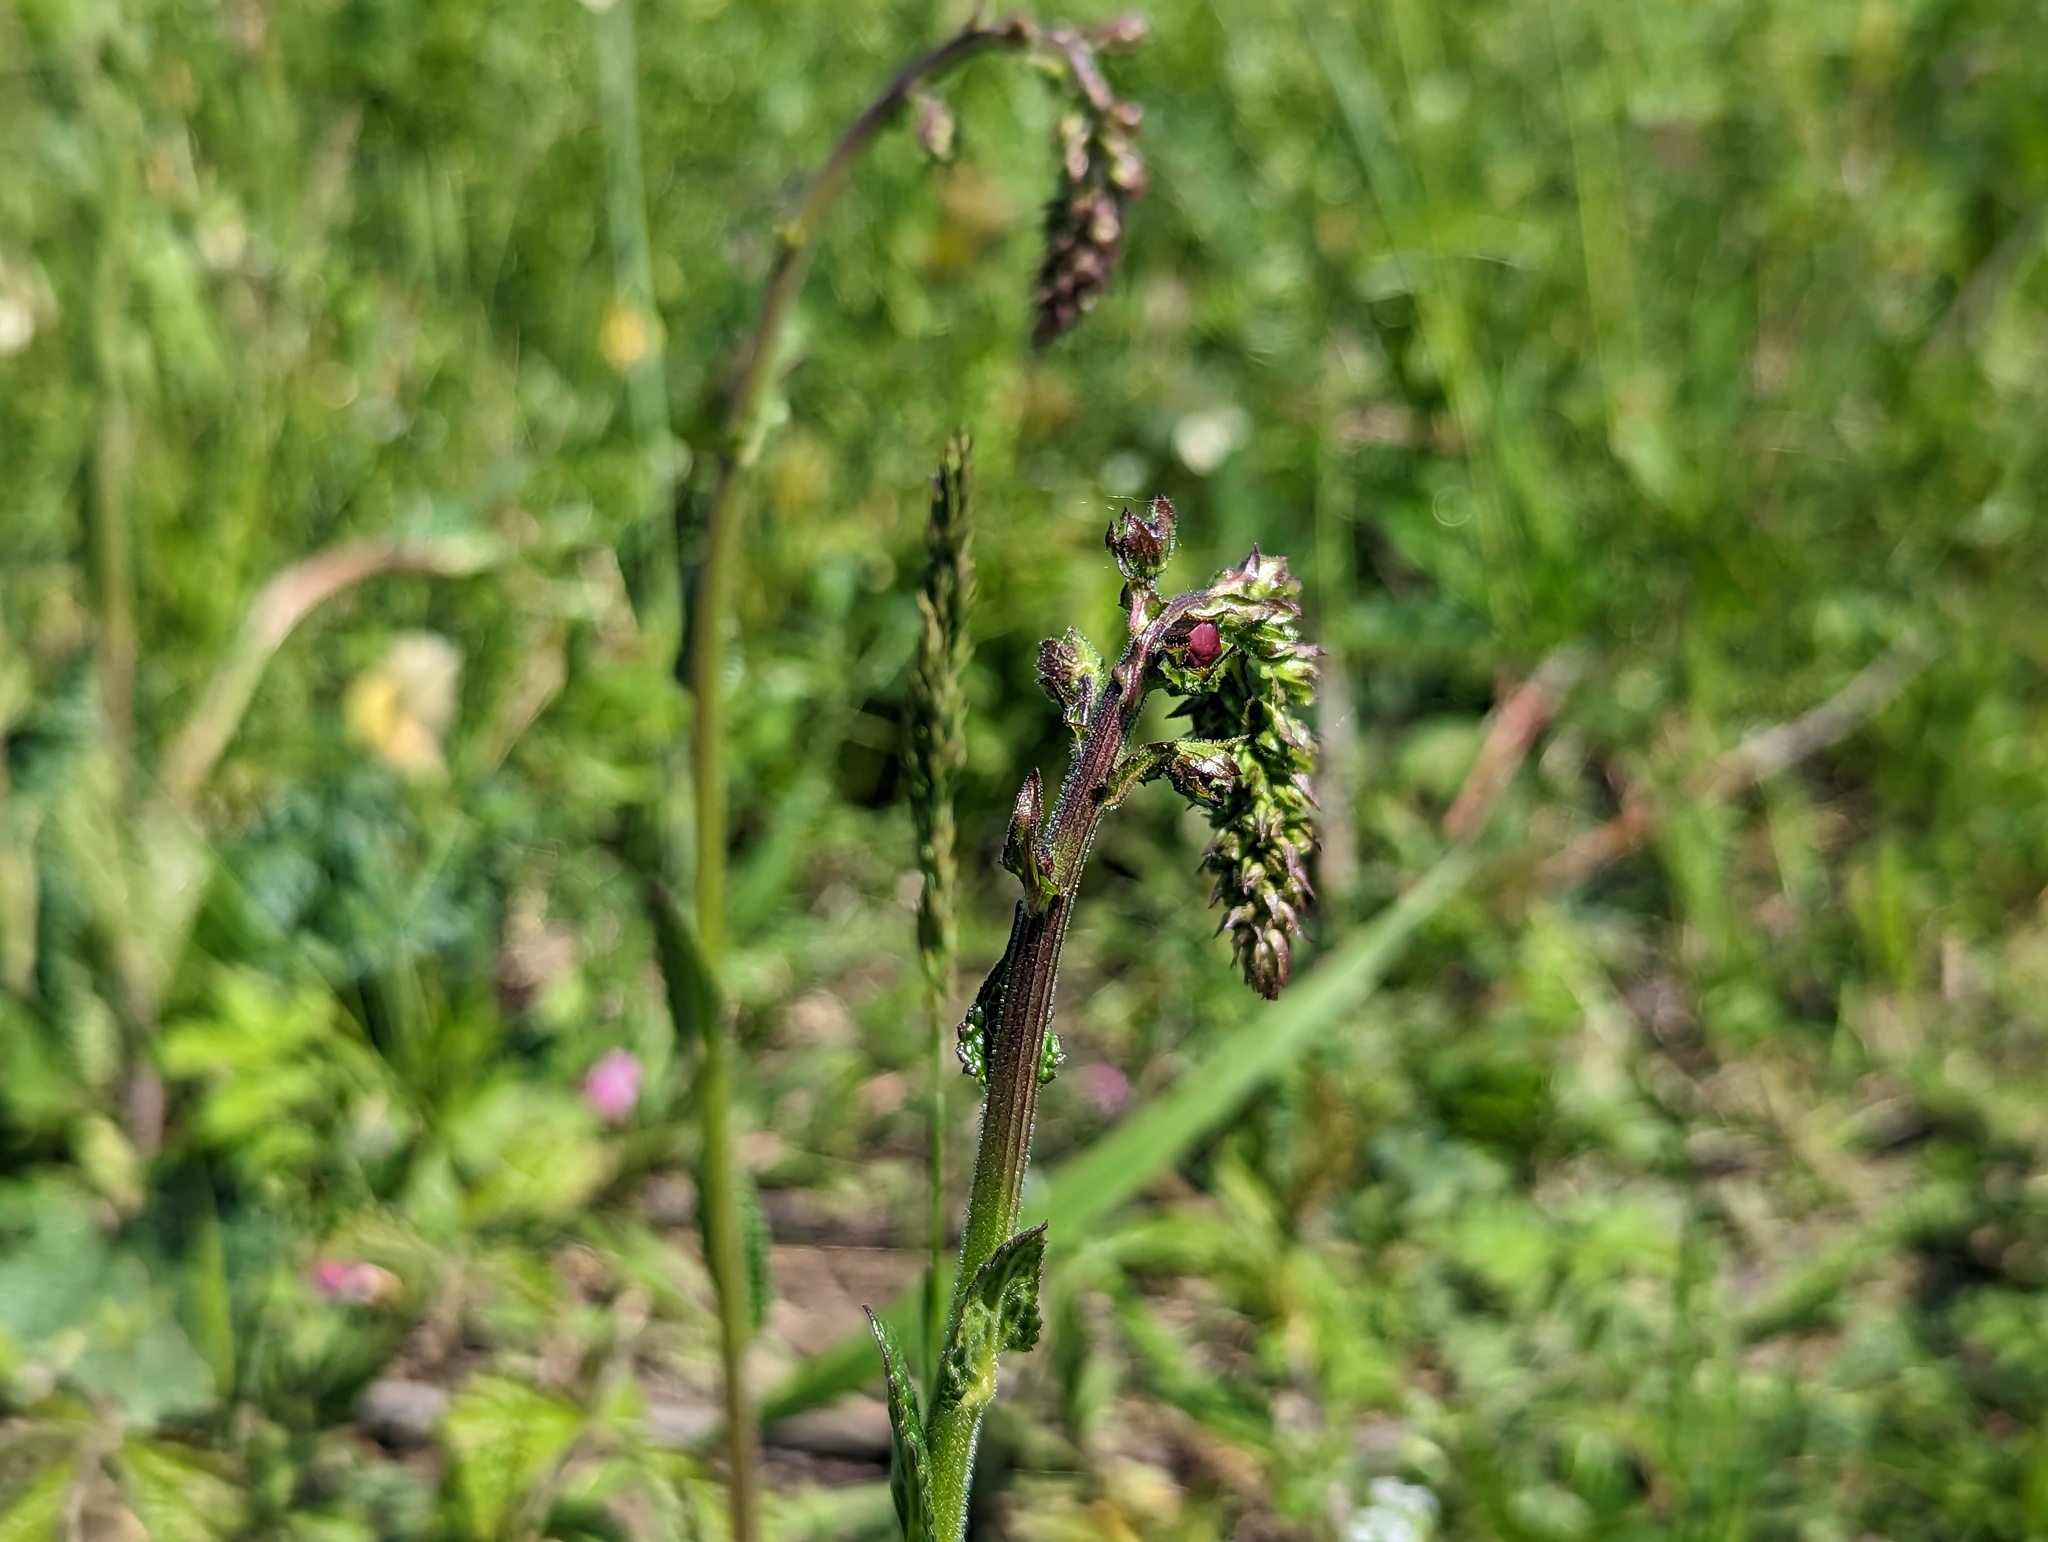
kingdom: Plantae
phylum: Tracheophyta
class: Magnoliopsida
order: Lamiales
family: Scrophulariaceae
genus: Verbascum
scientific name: Verbascum phoeniceum
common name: Purple mullein
